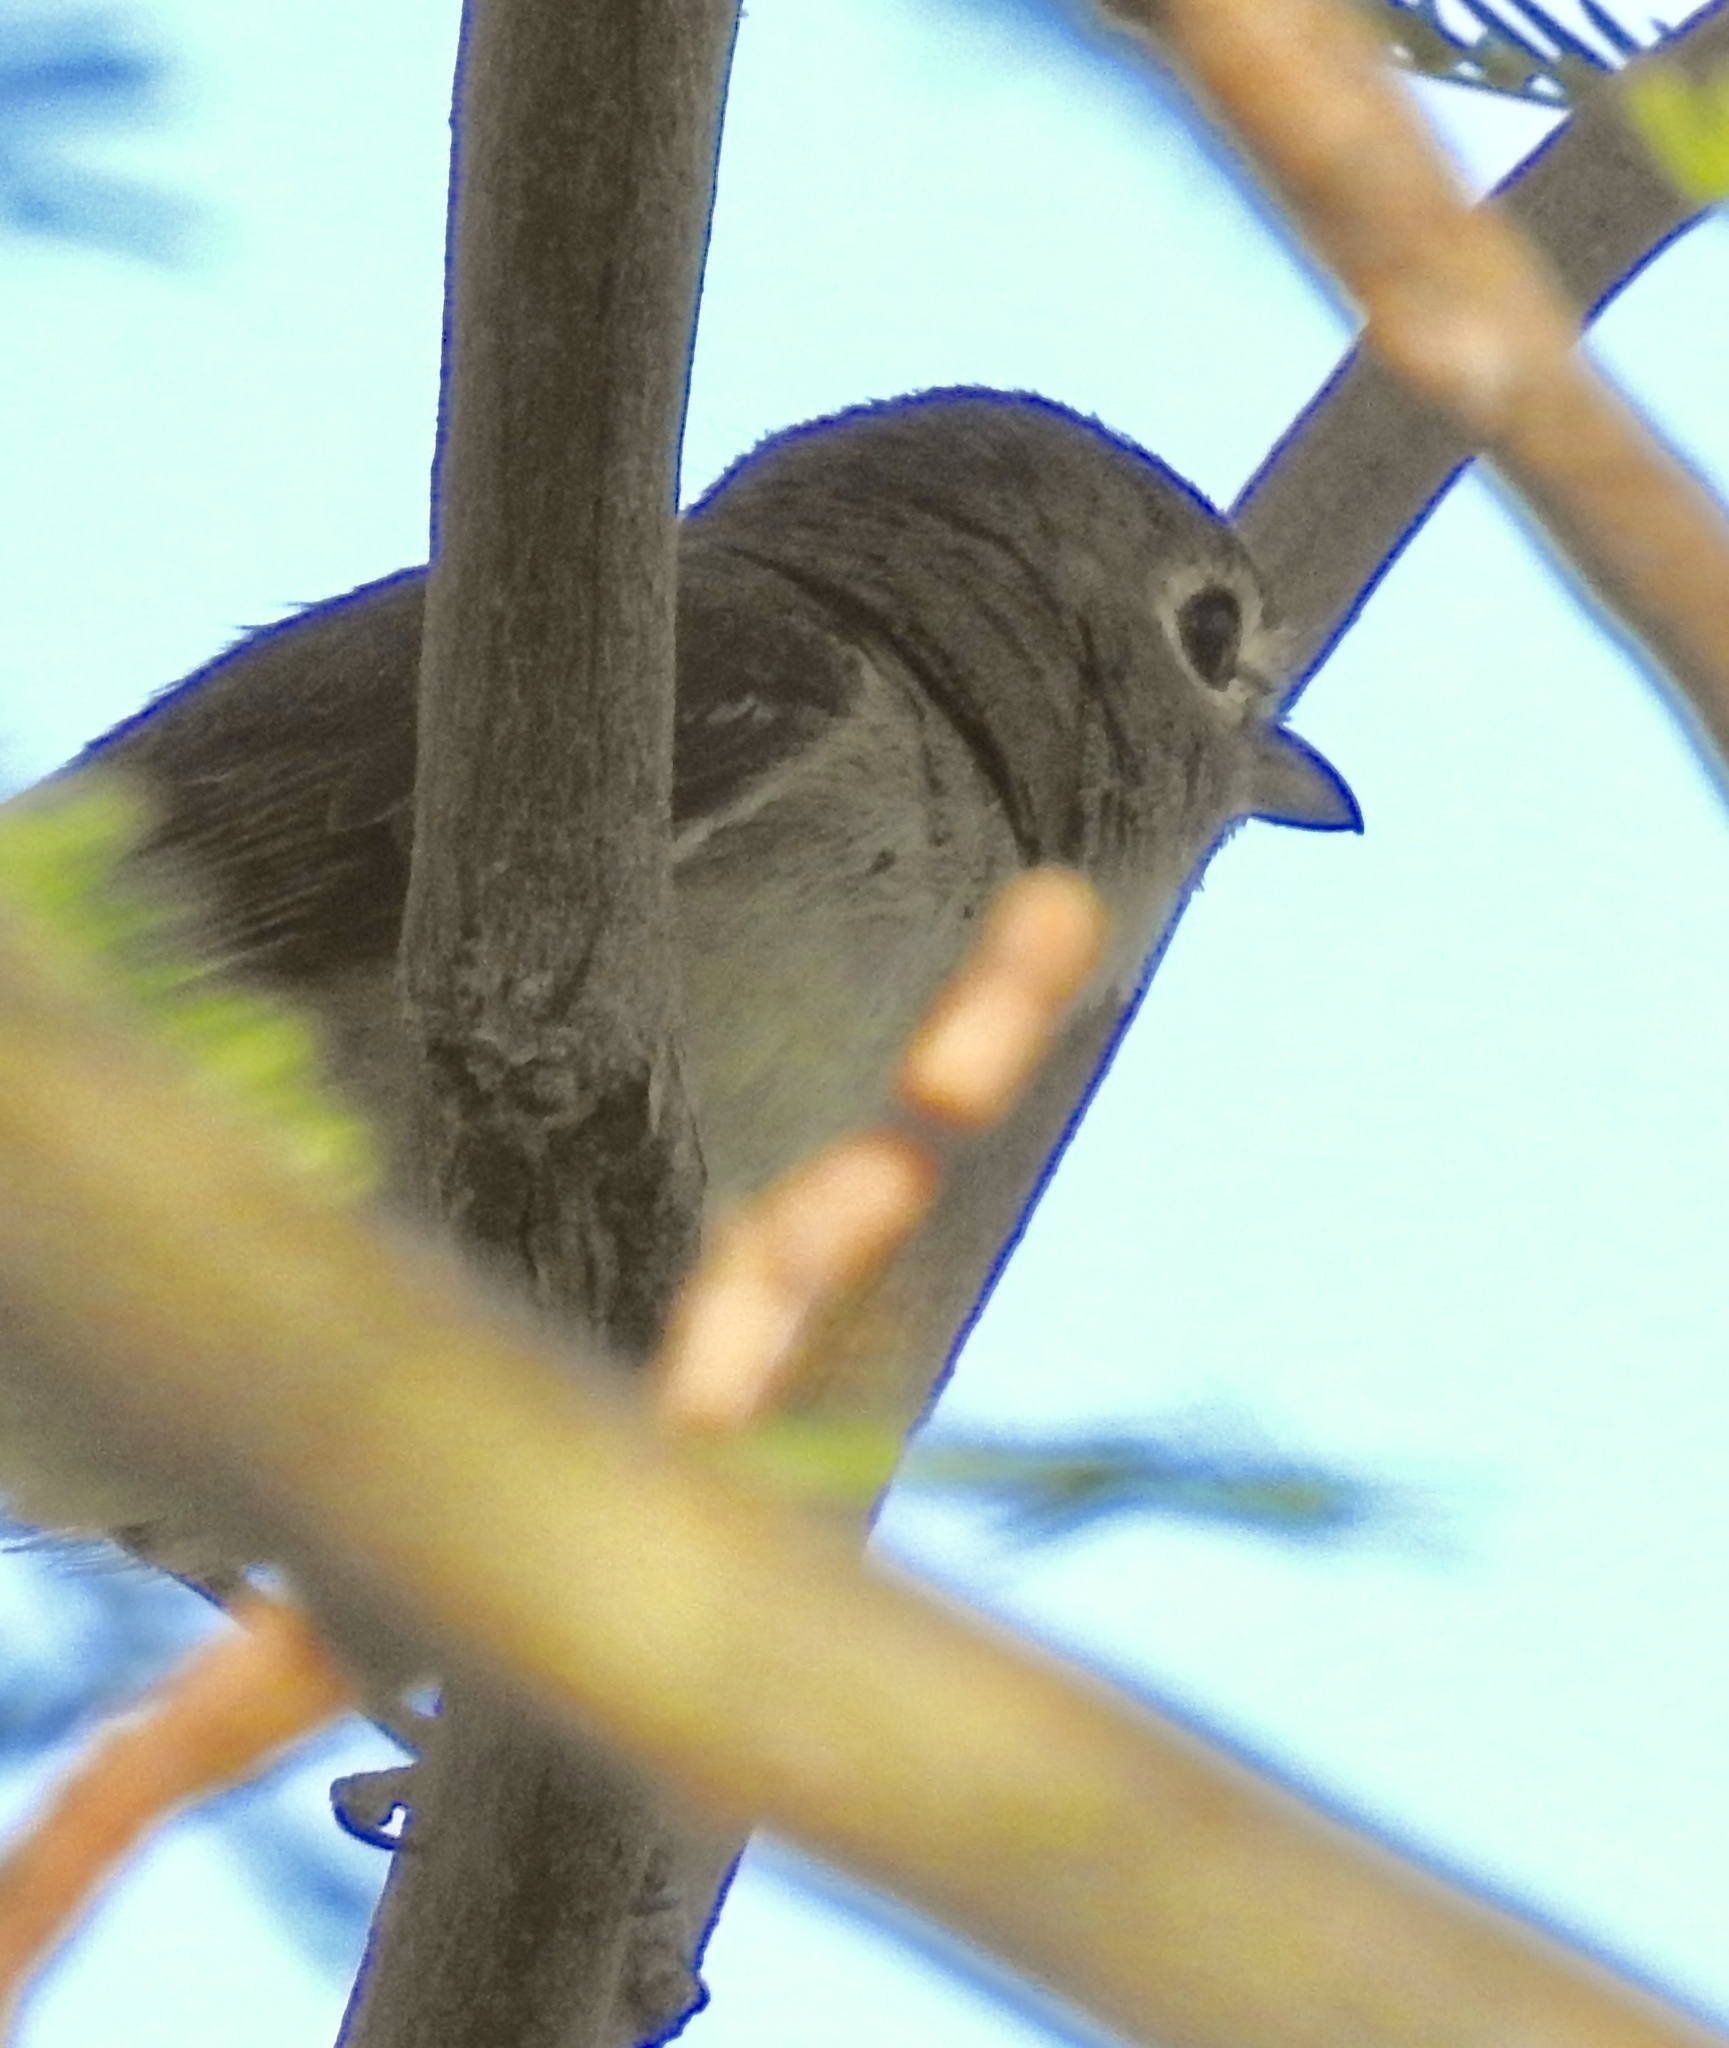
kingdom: Animalia
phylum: Chordata
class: Aves
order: Passeriformes
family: Vireonidae
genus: Vireo
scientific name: Vireo cassinii
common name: Cassin's vireo
